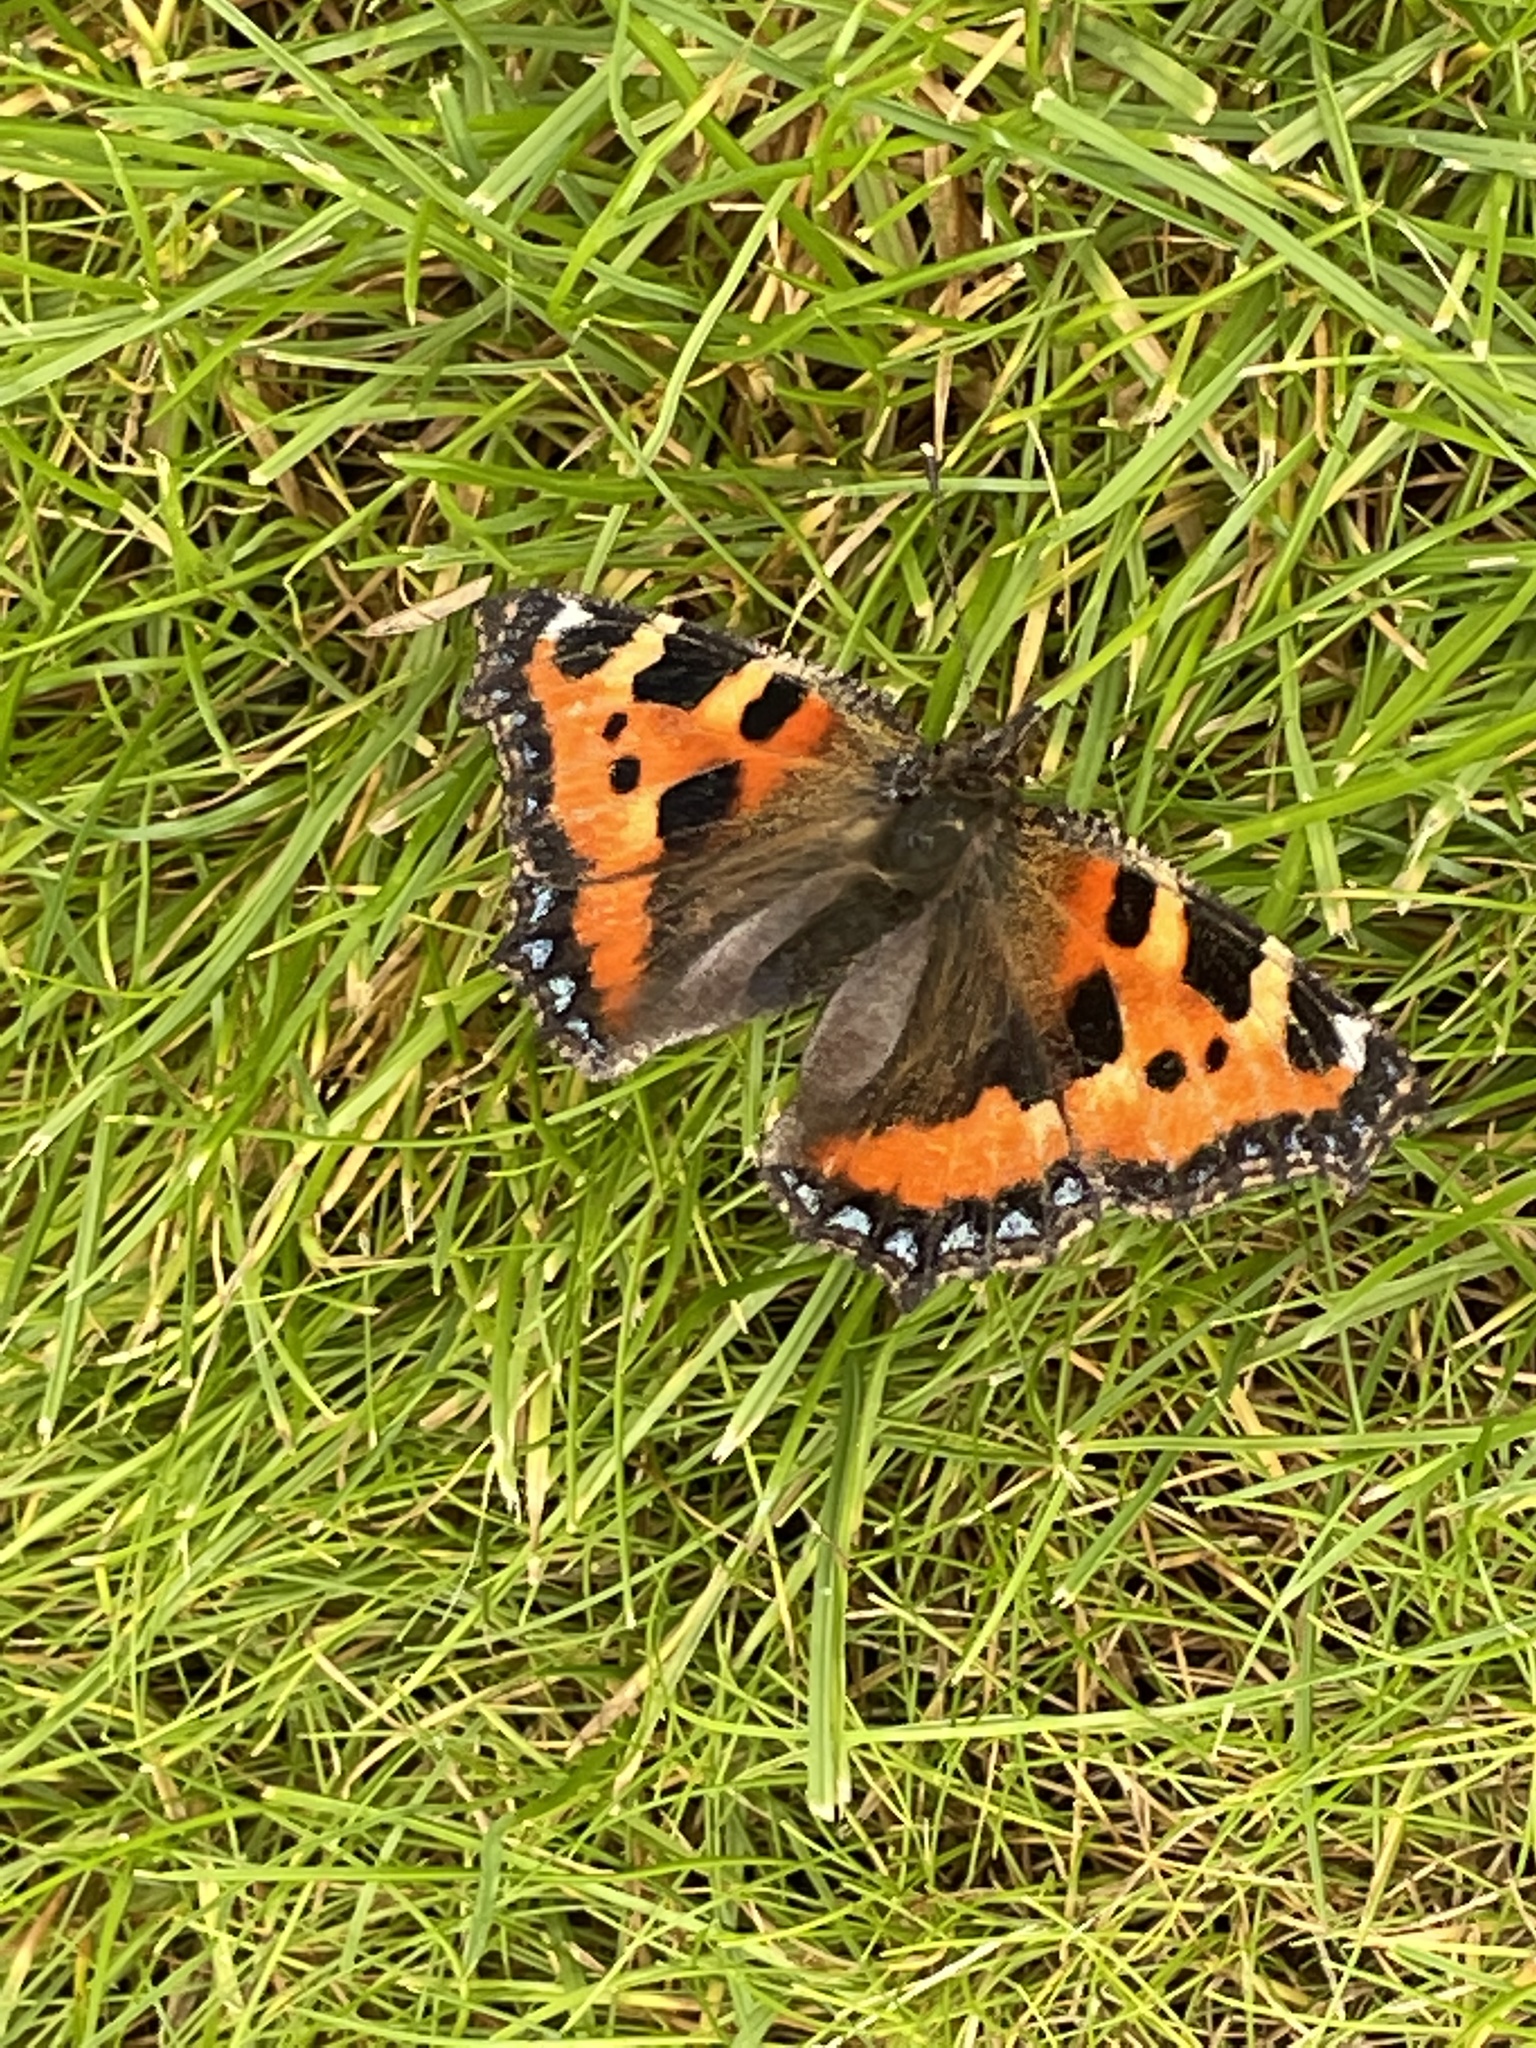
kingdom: Animalia
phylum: Arthropoda
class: Insecta
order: Lepidoptera
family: Nymphalidae
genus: Aglais
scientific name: Aglais urticae
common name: Small tortoiseshell
